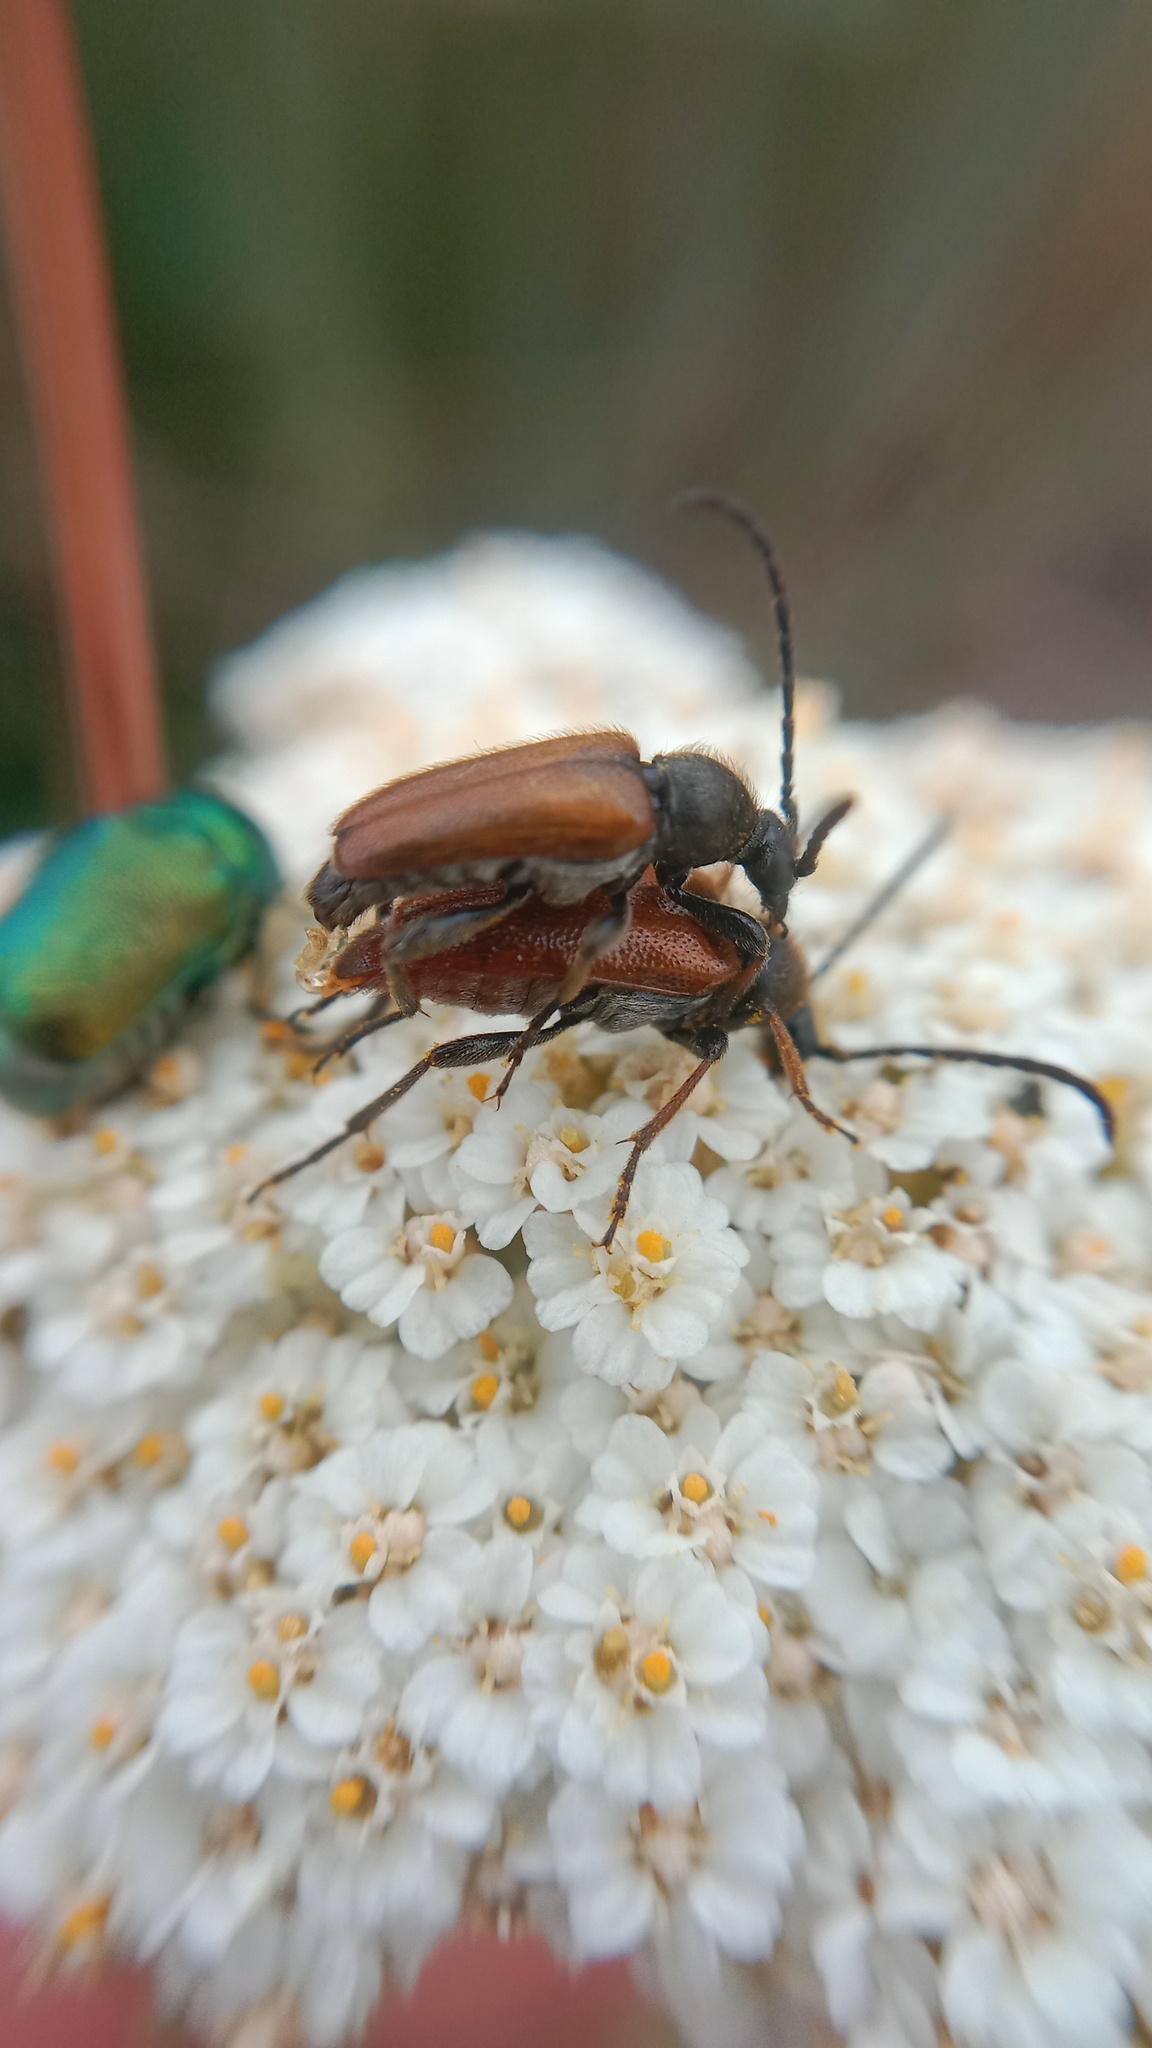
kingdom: Animalia
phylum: Arthropoda
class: Insecta
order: Coleoptera
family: Cerambycidae
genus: Pseudovadonia
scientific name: Pseudovadonia livida
